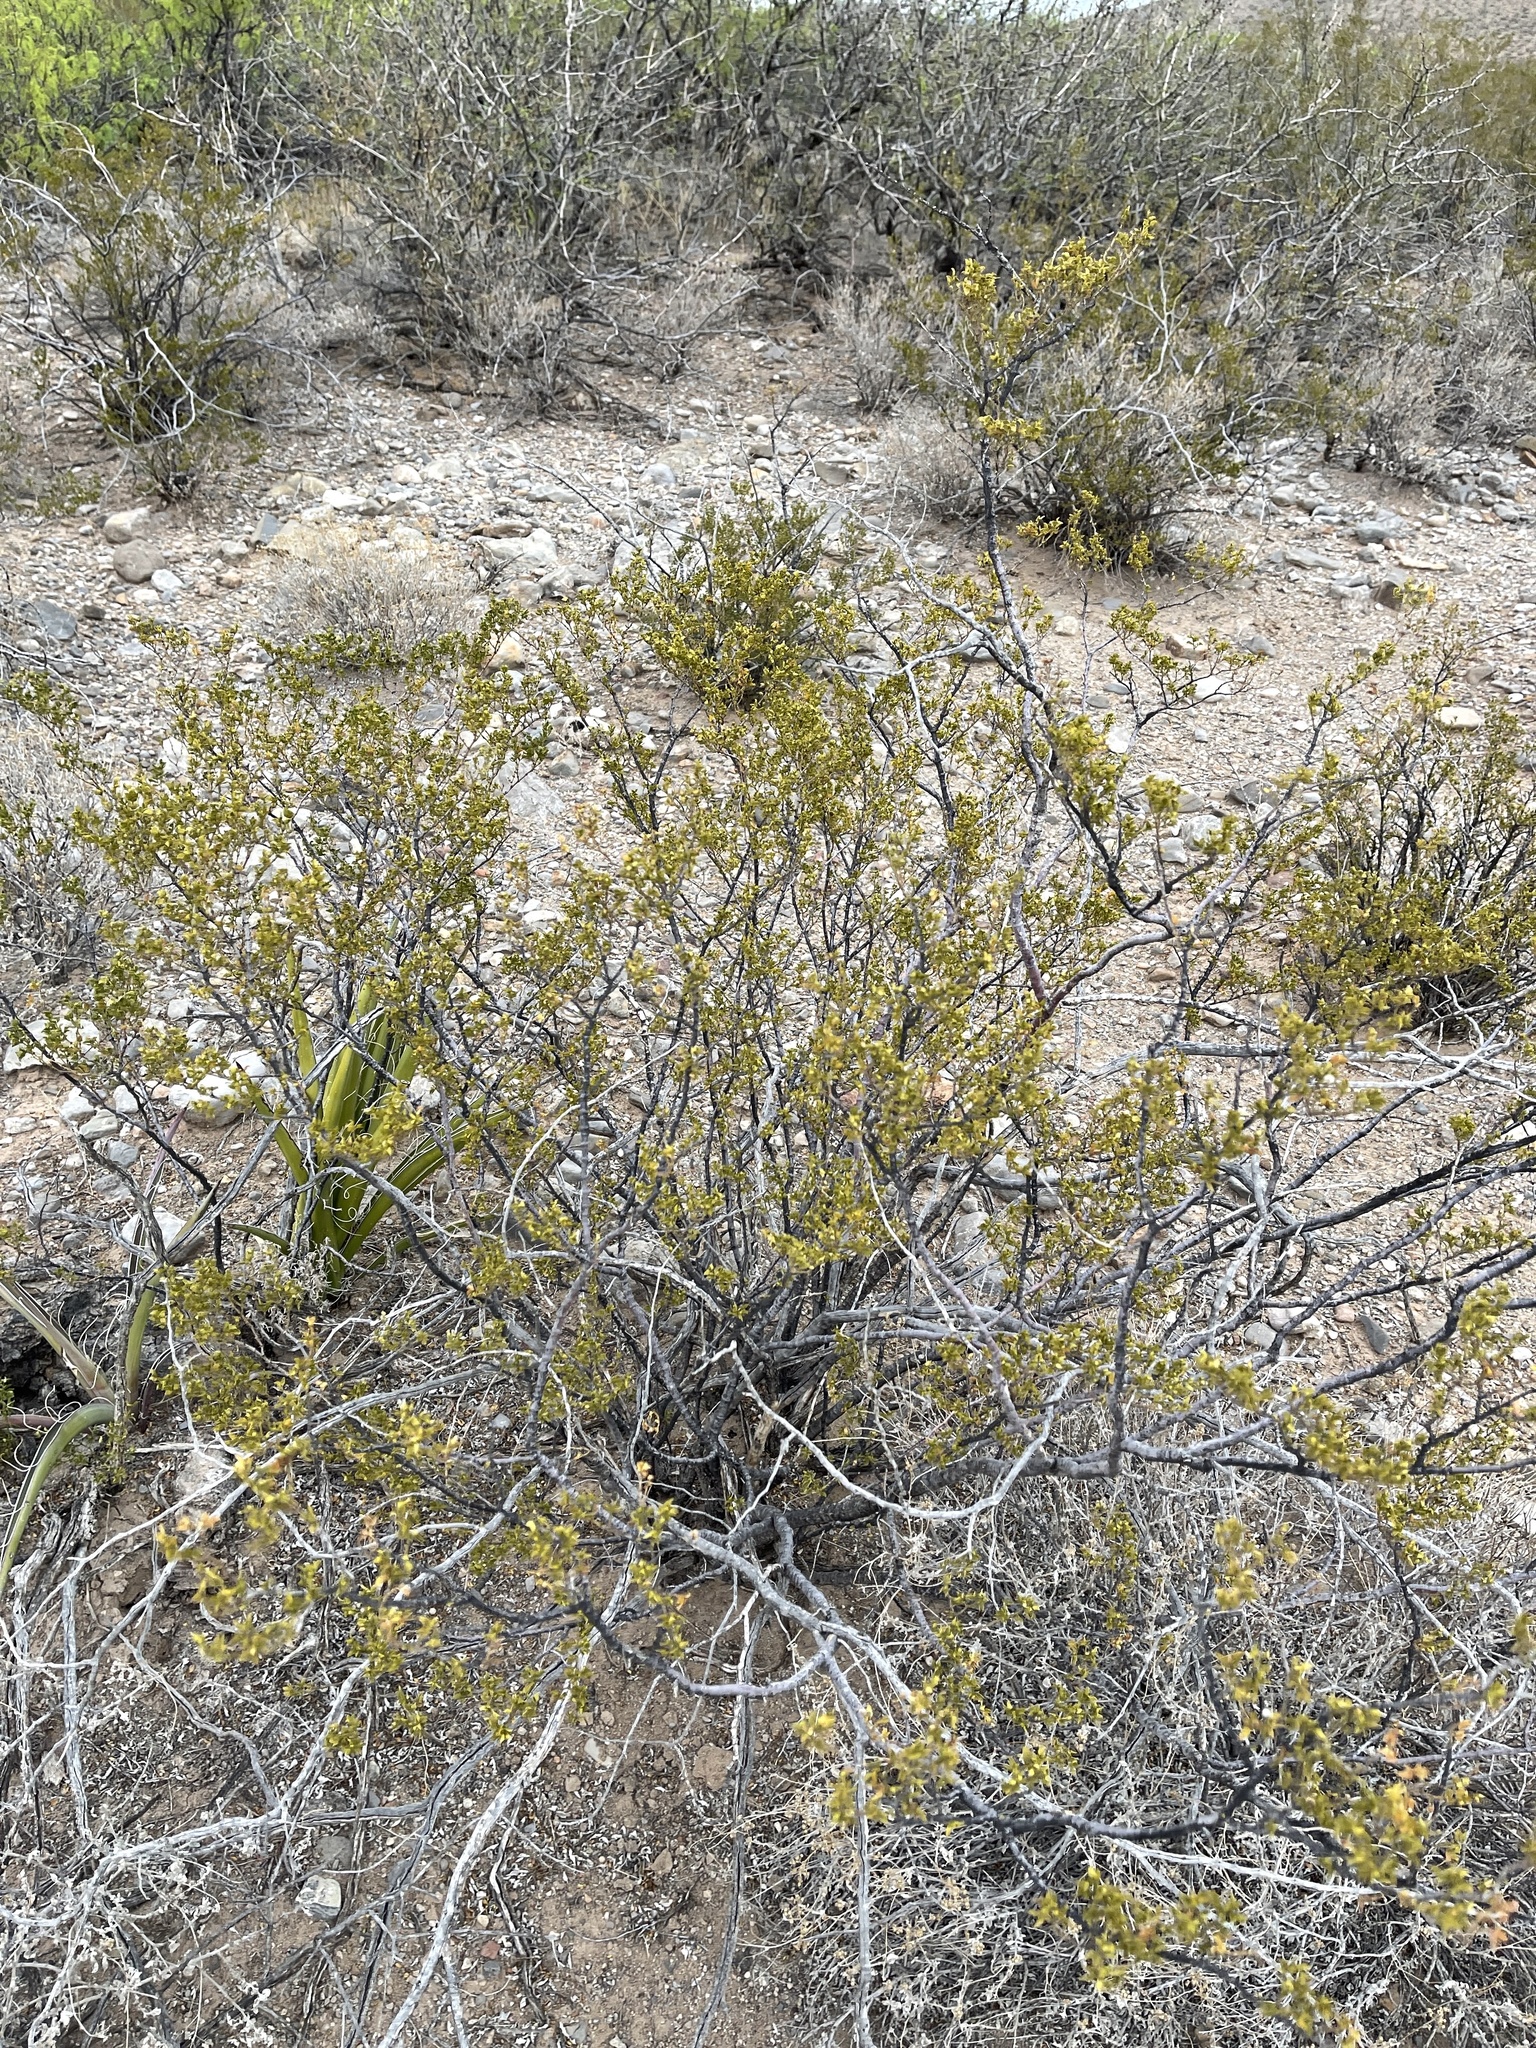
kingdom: Plantae
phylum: Tracheophyta
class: Magnoliopsida
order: Zygophyllales
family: Zygophyllaceae
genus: Larrea
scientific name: Larrea tridentata
